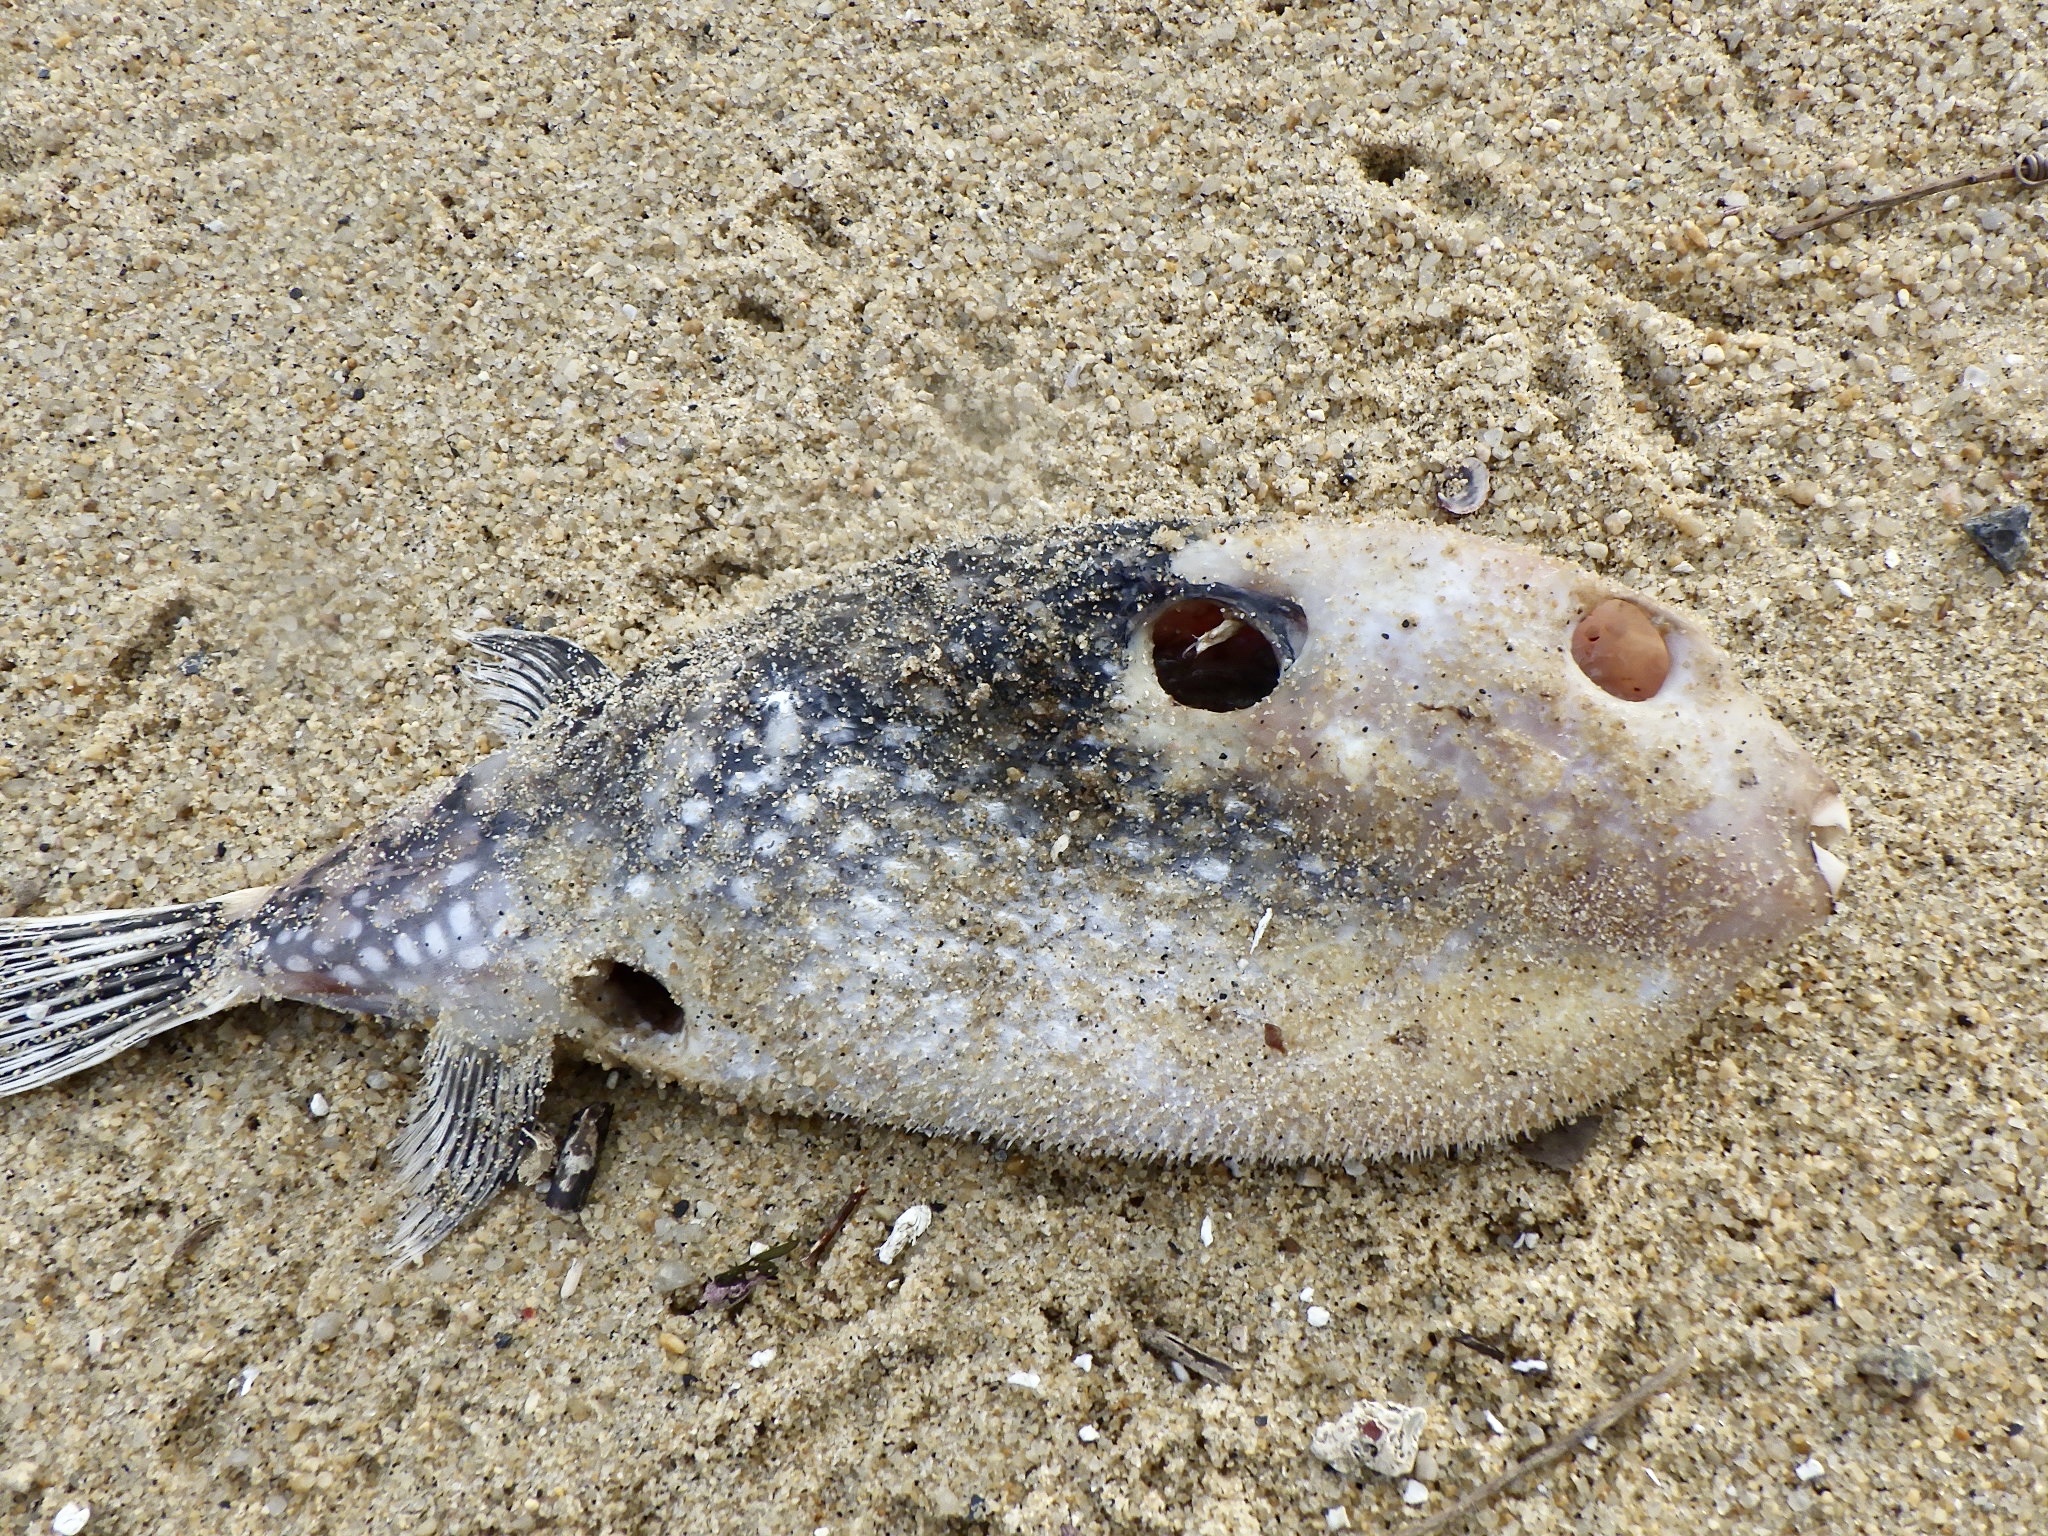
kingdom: Animalia
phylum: Chordata
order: Tetraodontiformes
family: Tetraodontidae
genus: Arothron
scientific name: Arothron firmamentum
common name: Starry toado
